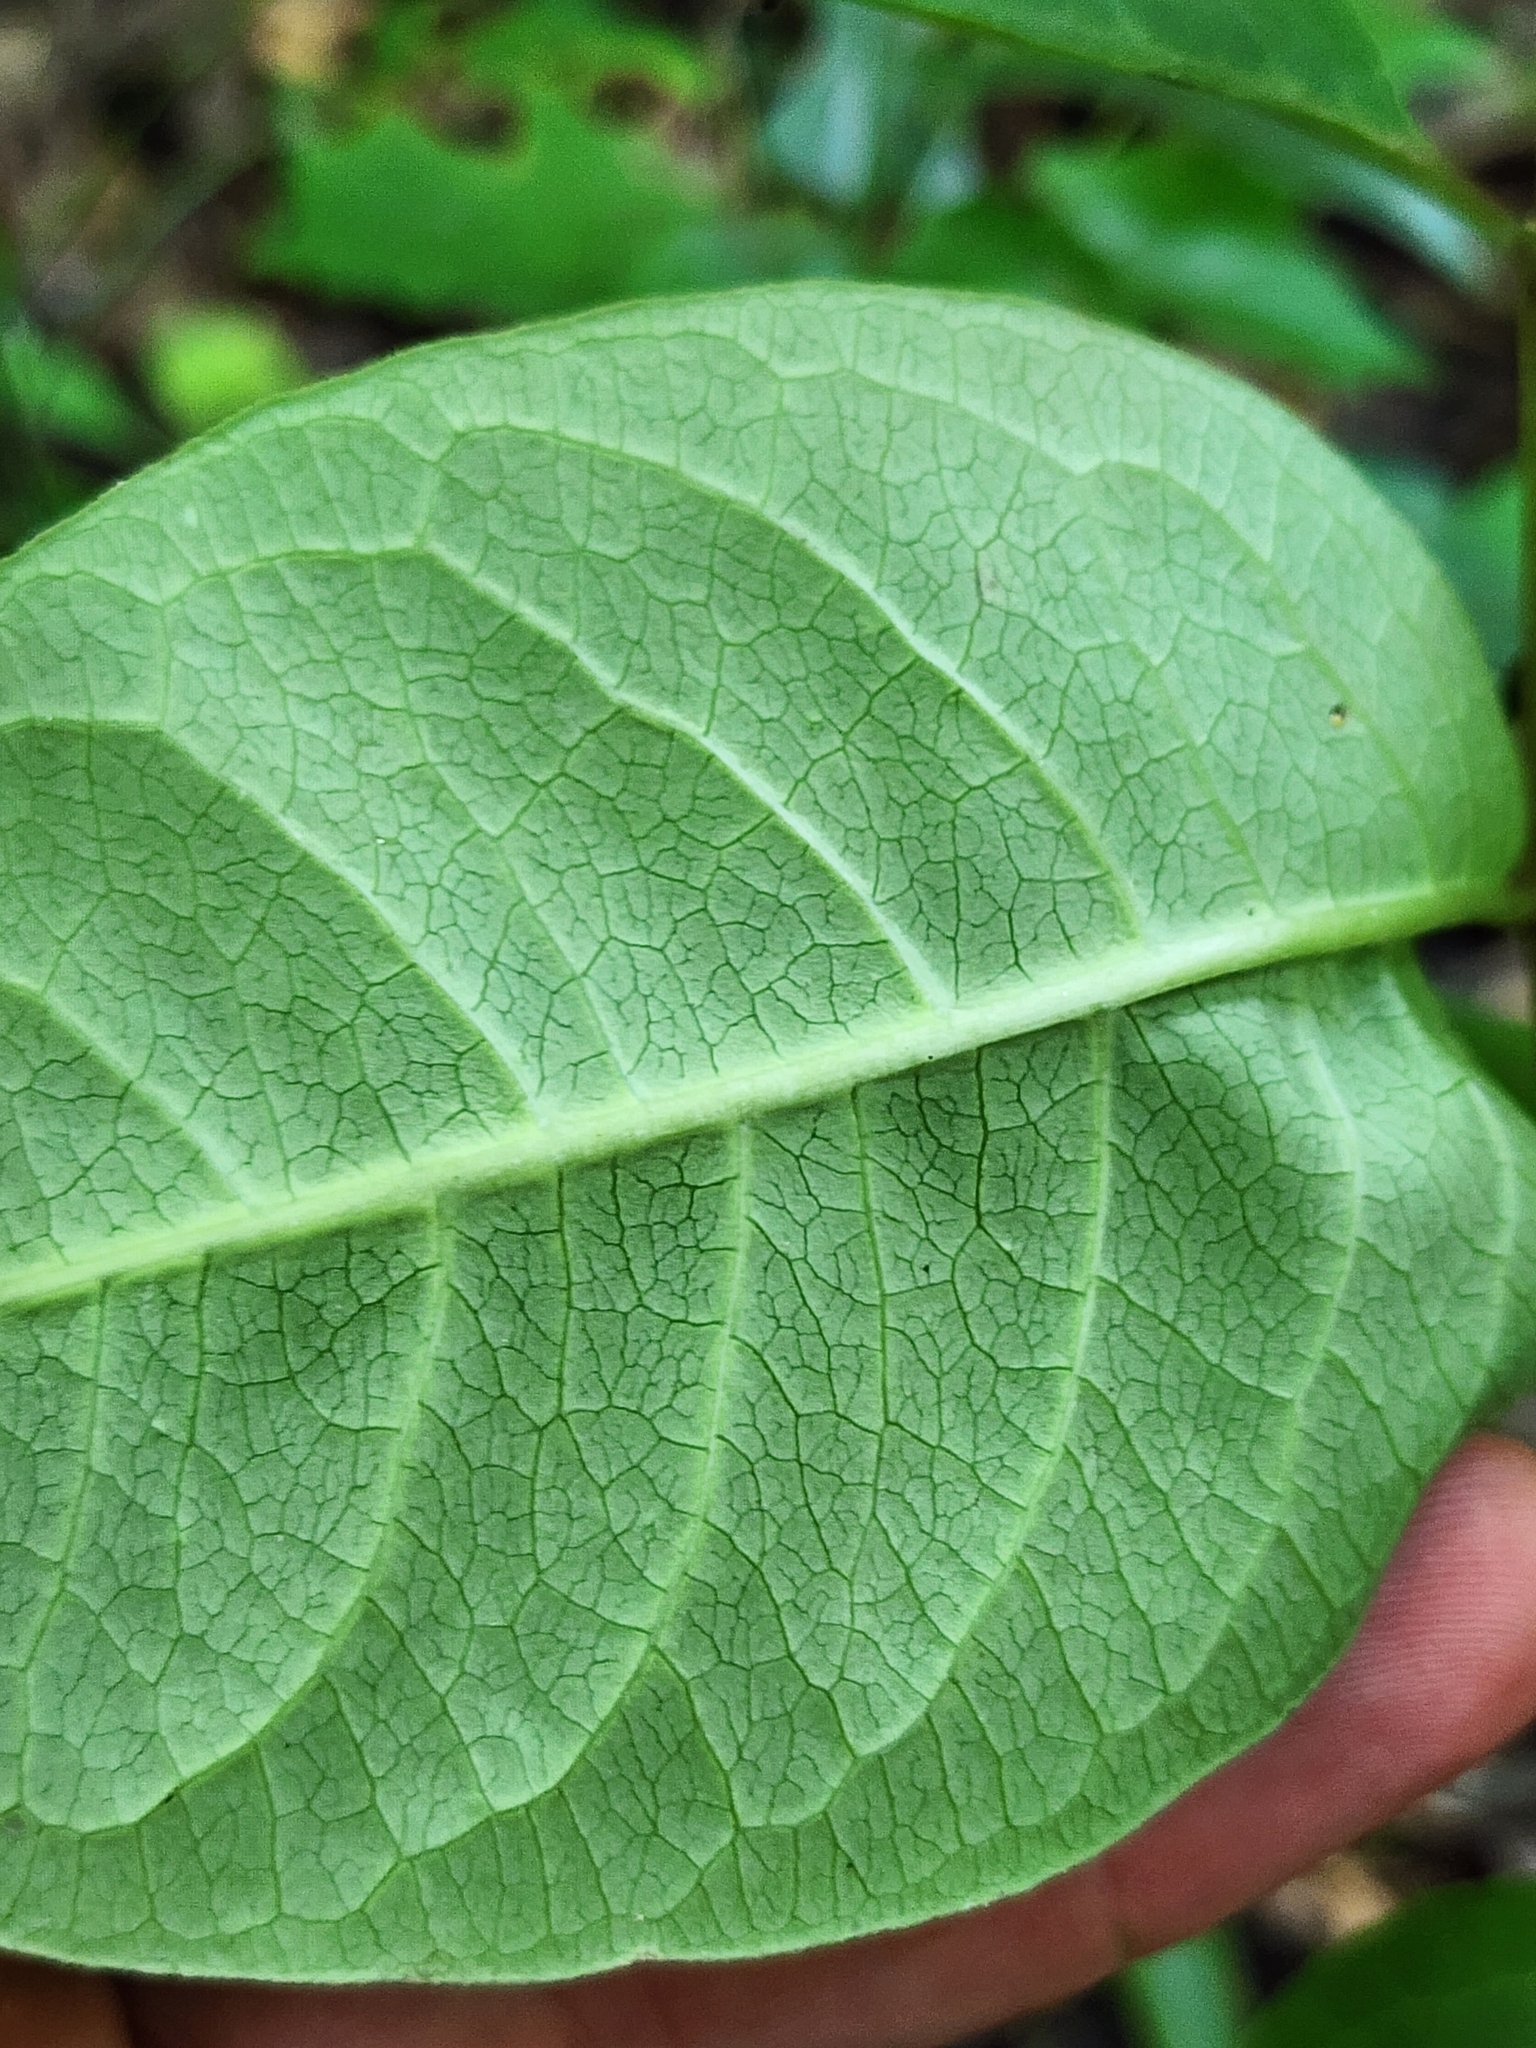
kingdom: Plantae
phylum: Tracheophyta
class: Magnoliopsida
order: Gentianales
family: Apocynaceae
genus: Asclepias
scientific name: Asclepias variegata
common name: Variegated milkweed
